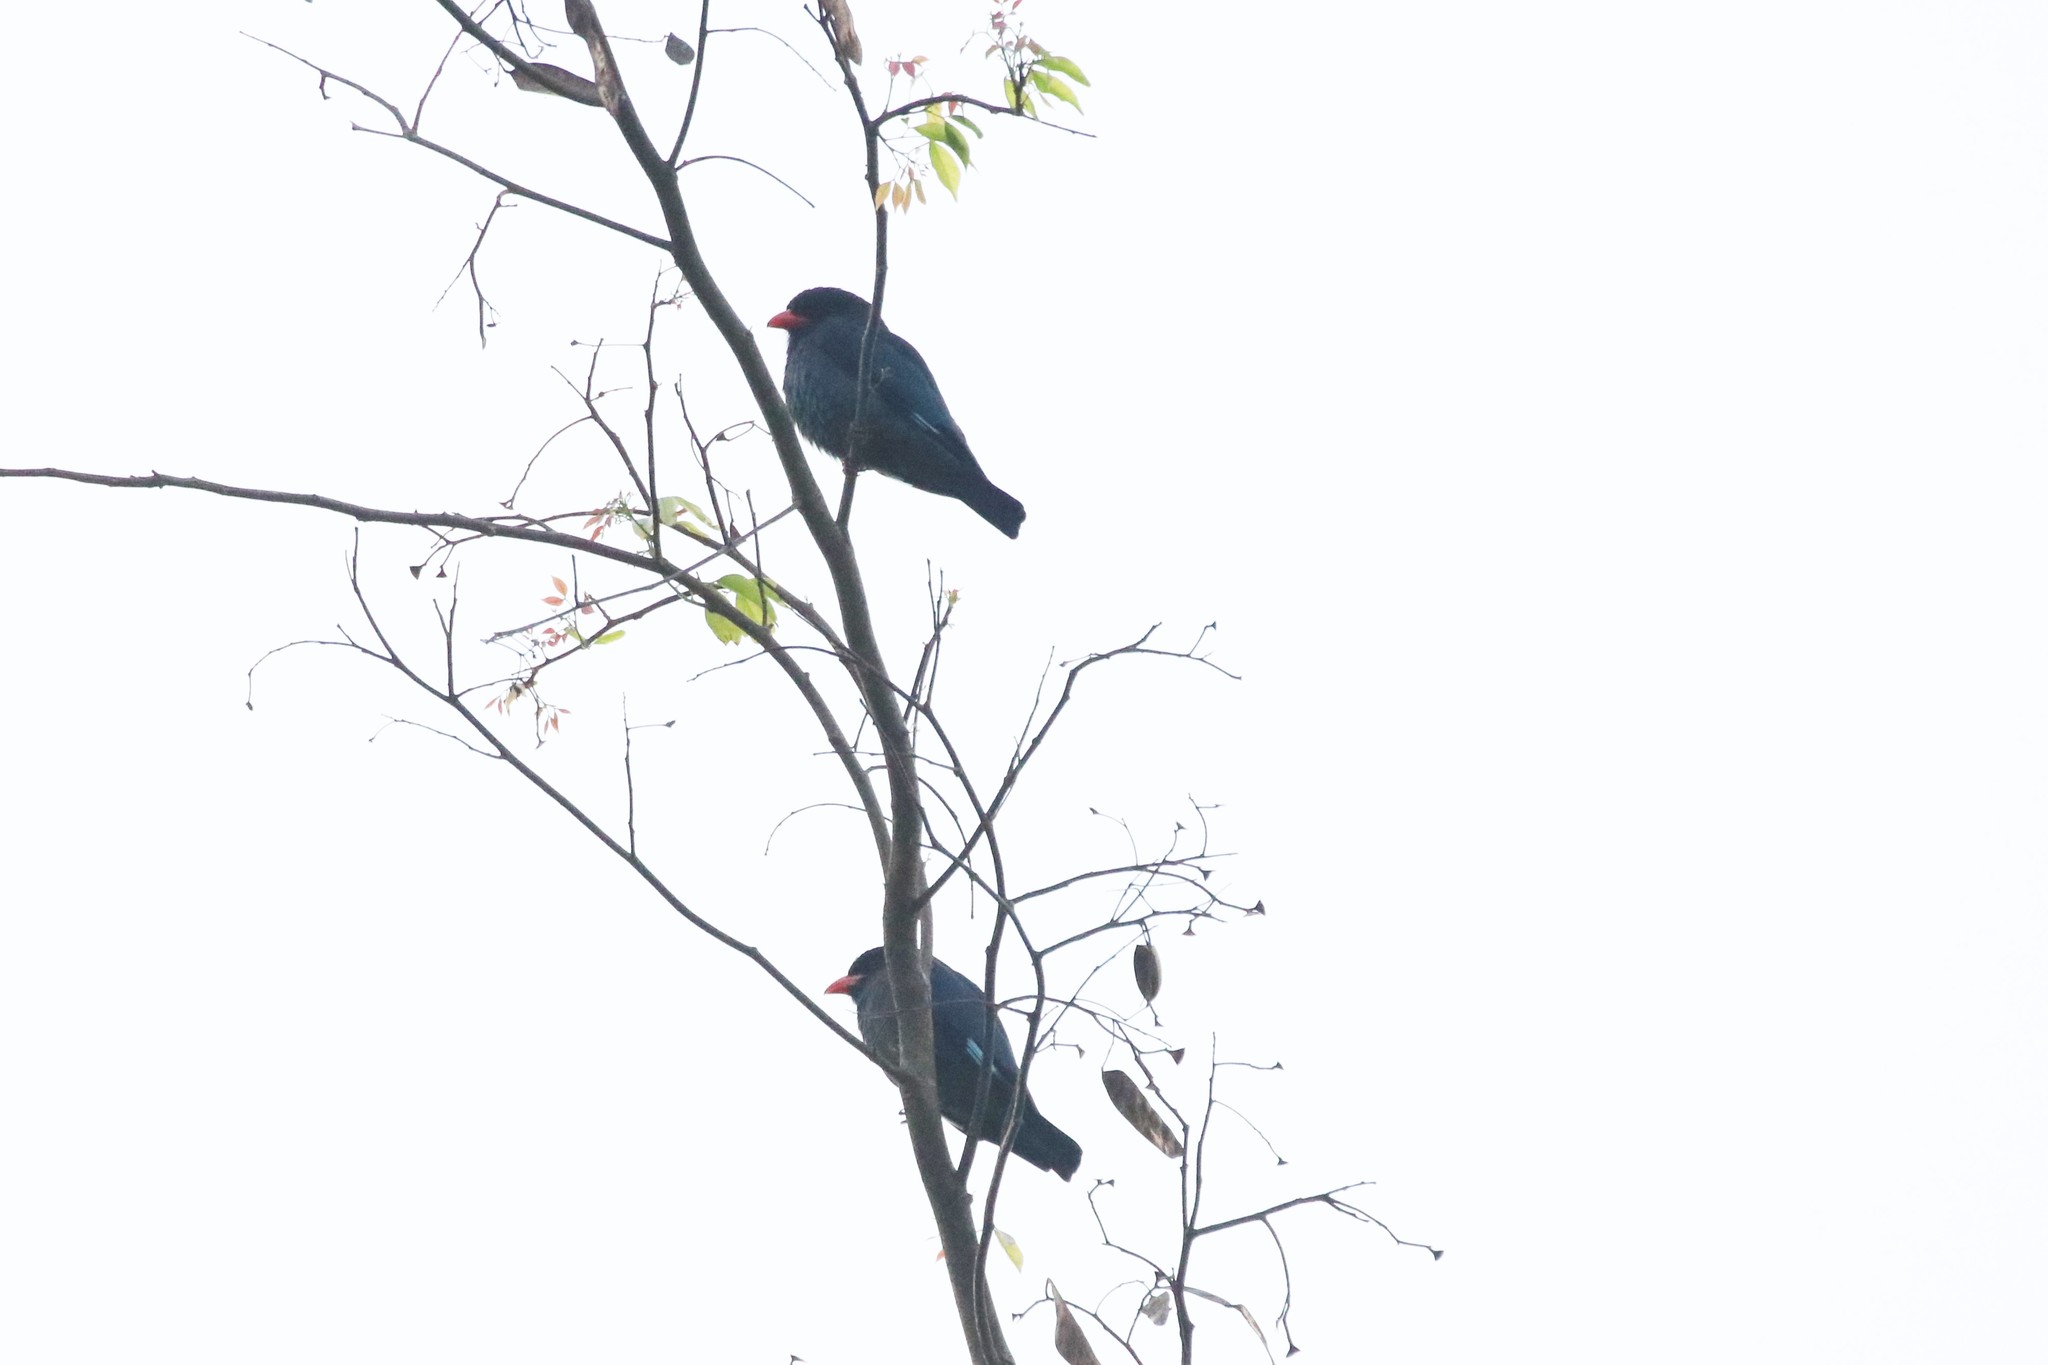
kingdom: Animalia
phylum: Chordata
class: Aves
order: Coraciiformes
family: Coraciidae
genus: Eurystomus
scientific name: Eurystomus orientalis
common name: Oriental dollarbird
